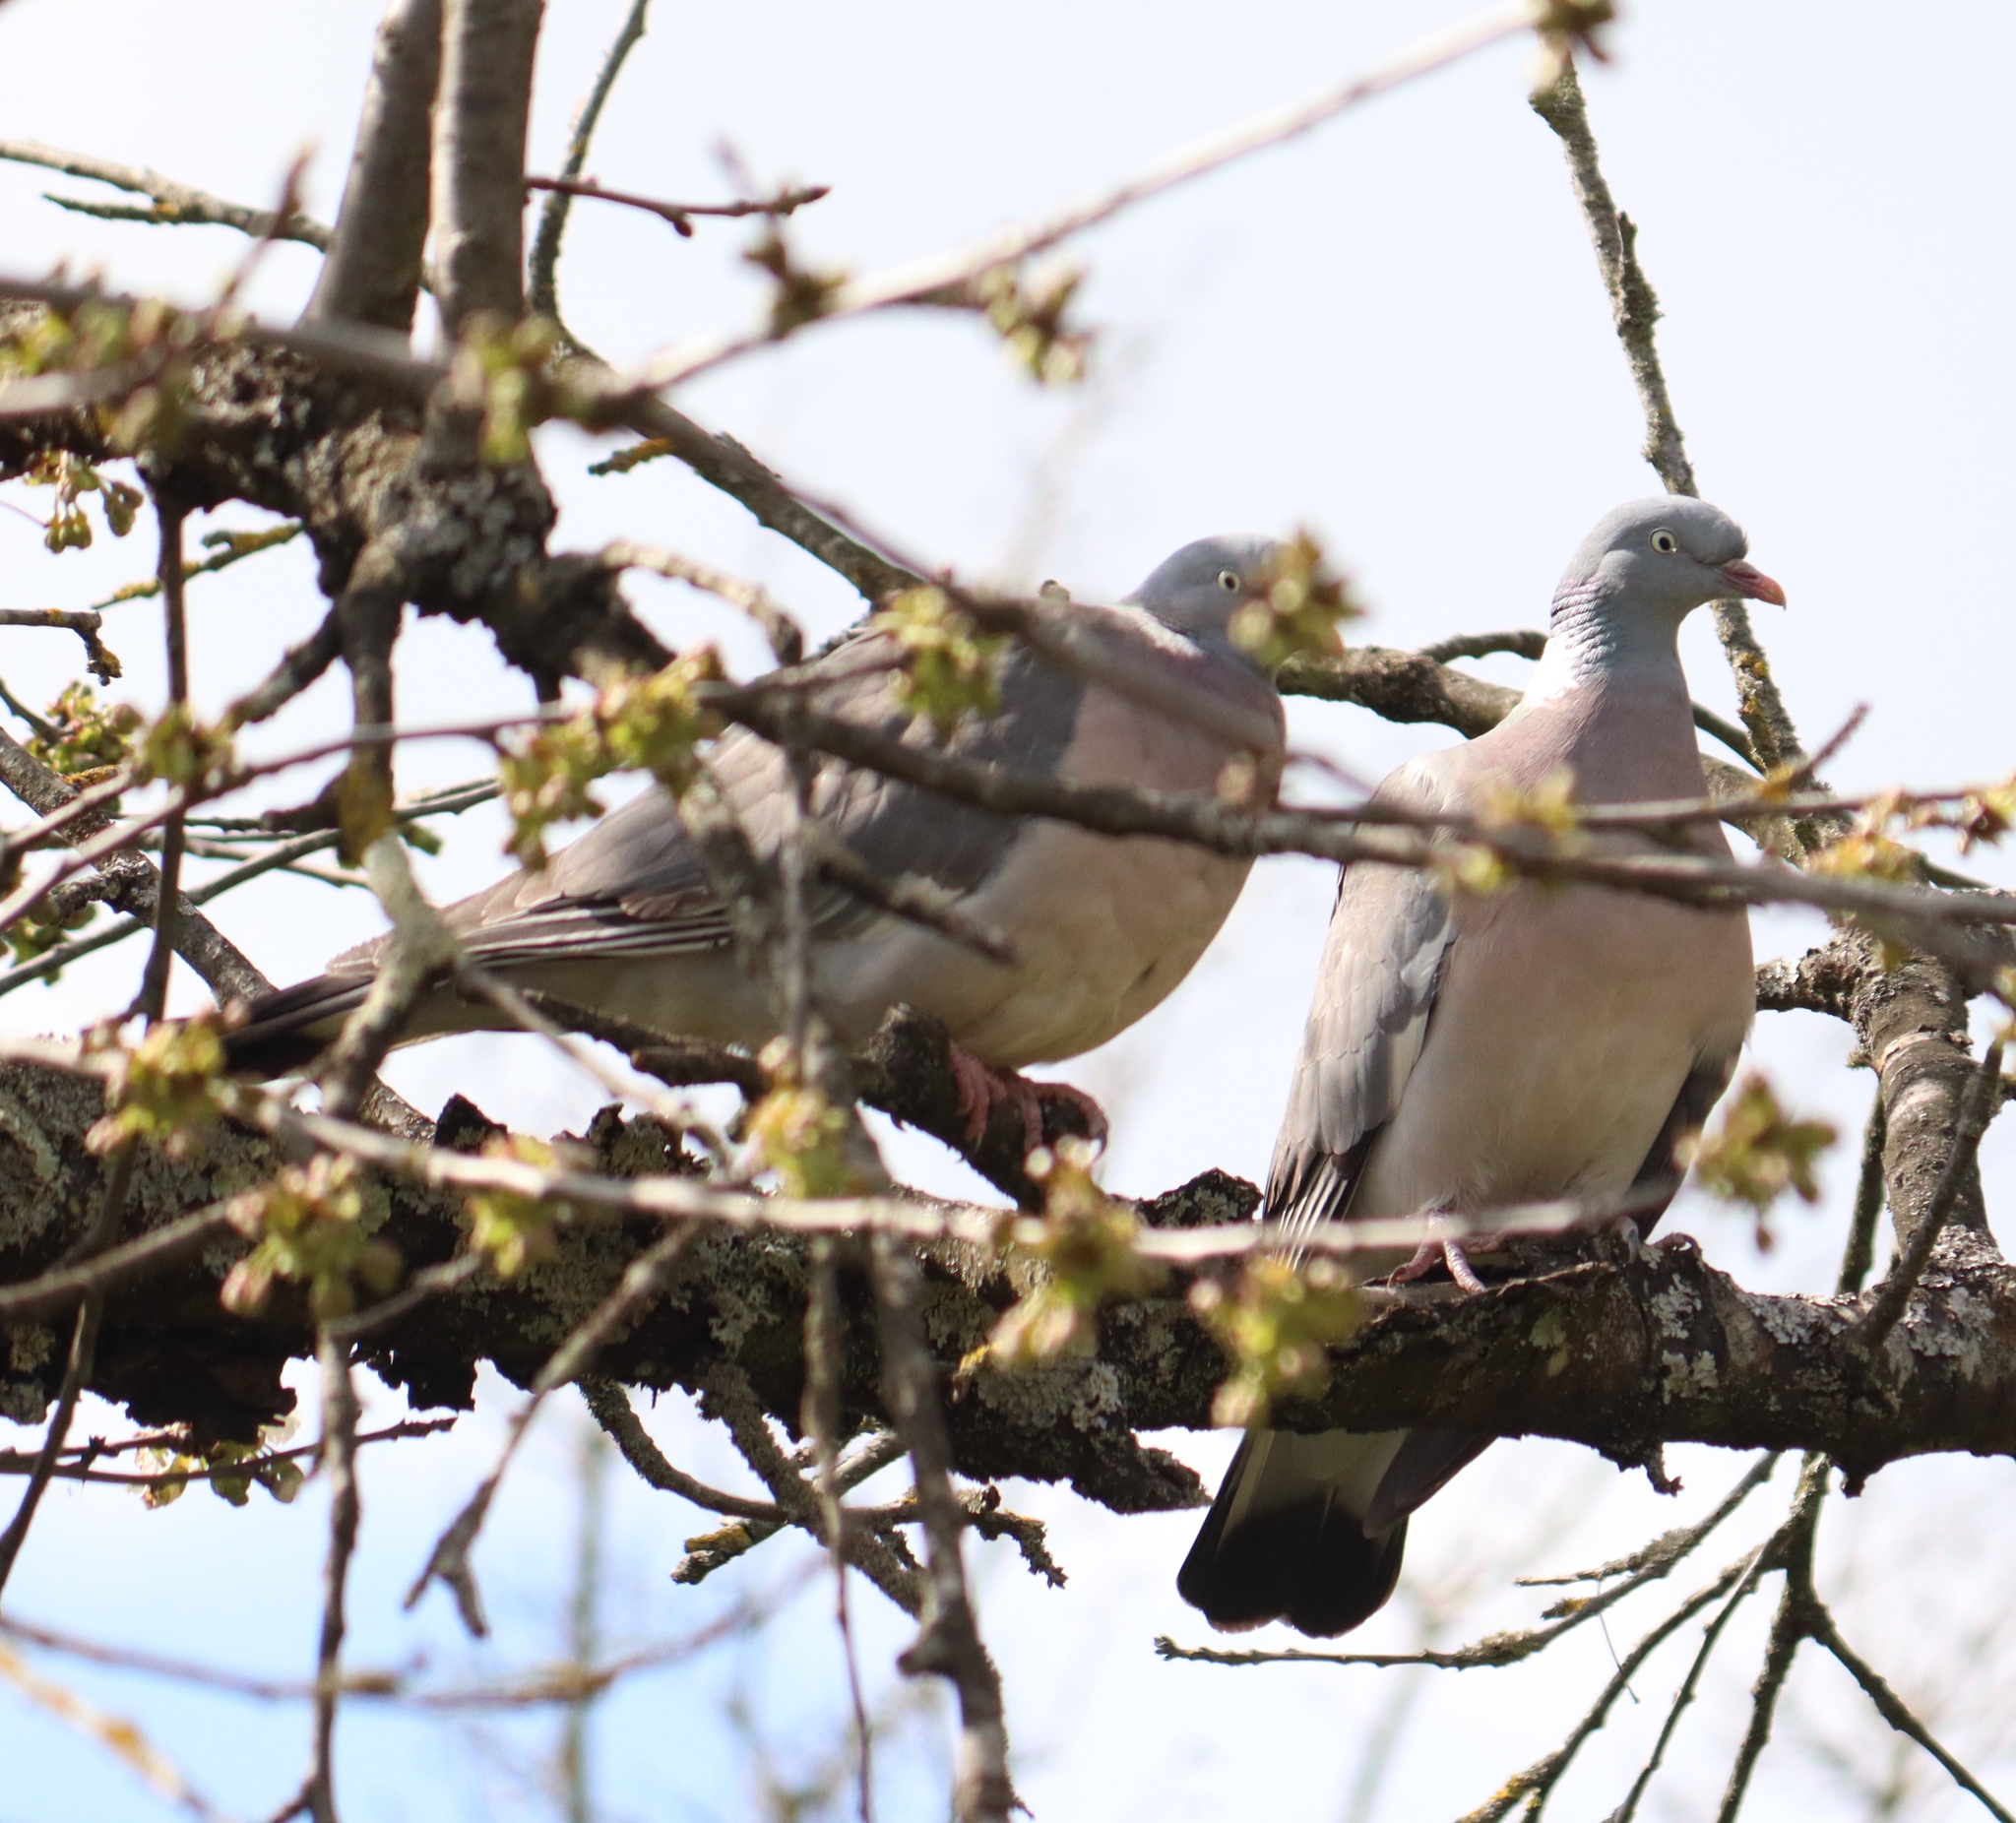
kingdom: Animalia
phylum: Chordata
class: Aves
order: Columbiformes
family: Columbidae
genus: Columba
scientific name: Columba palumbus
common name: Common wood pigeon
